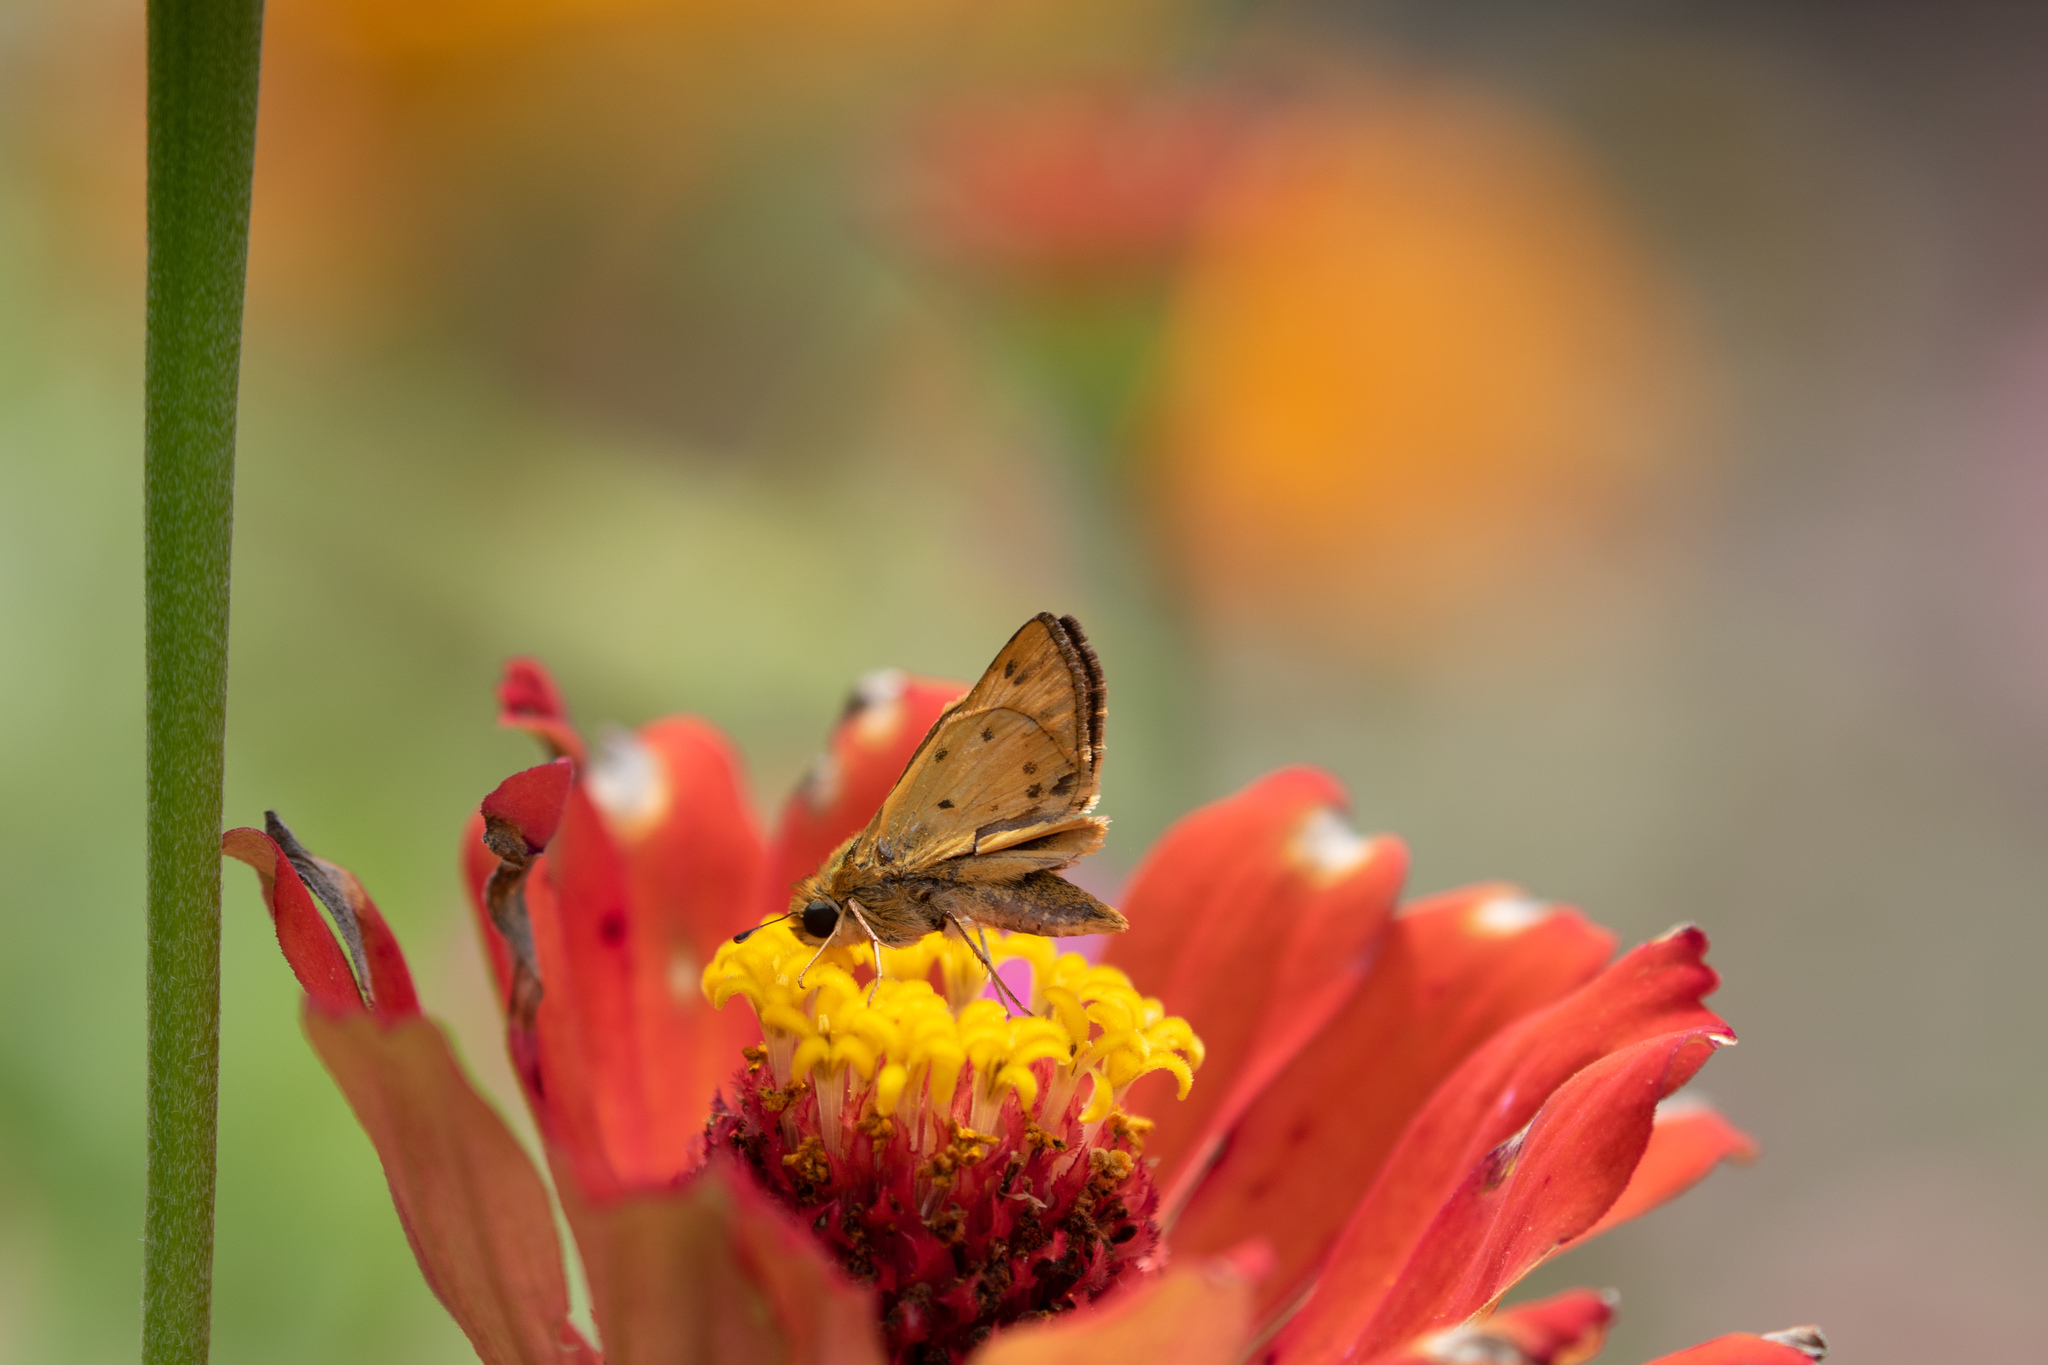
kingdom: Animalia
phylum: Arthropoda
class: Insecta
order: Lepidoptera
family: Hesperiidae
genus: Hylephila
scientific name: Hylephila phyleus
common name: Fiery skipper
